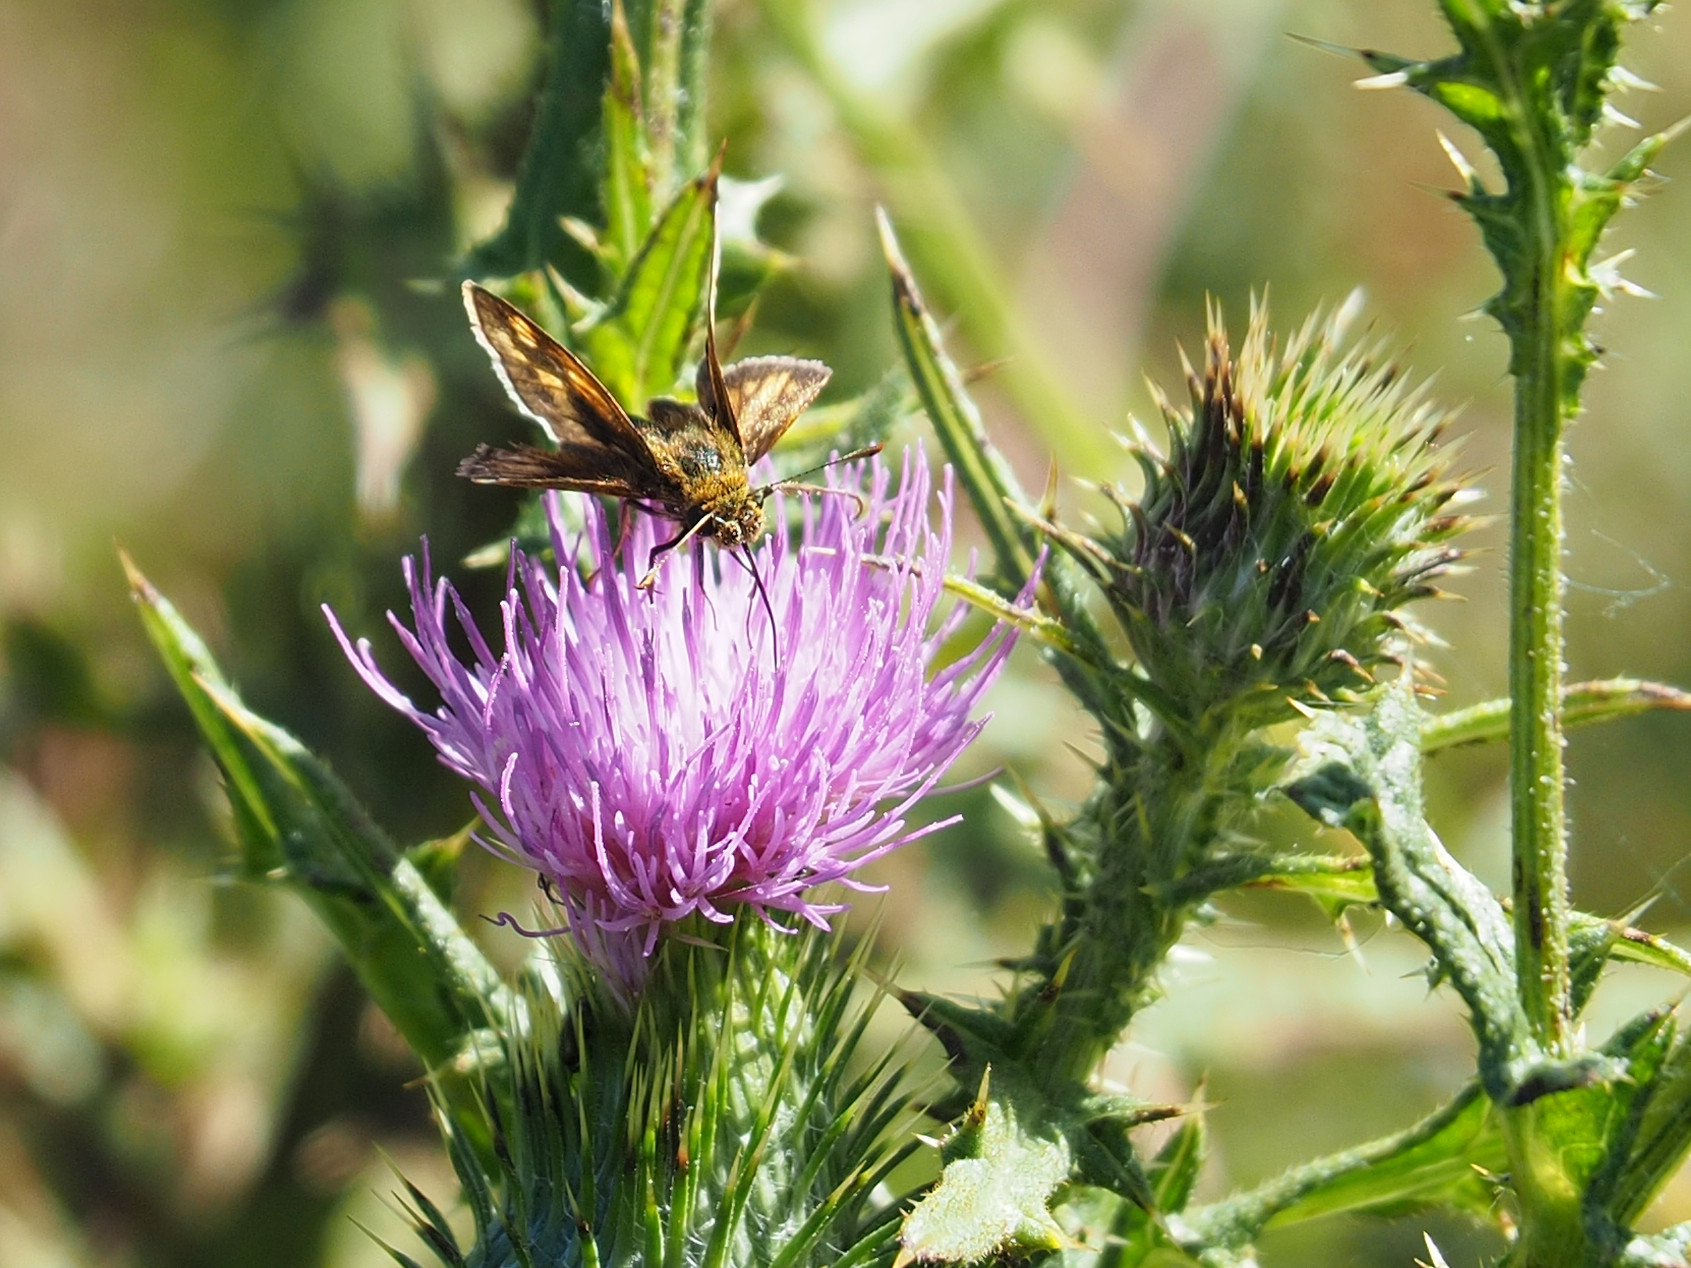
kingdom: Animalia
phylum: Arthropoda
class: Insecta
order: Lepidoptera
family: Hesperiidae
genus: Polites
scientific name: Polites coras
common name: Peck's skipper
